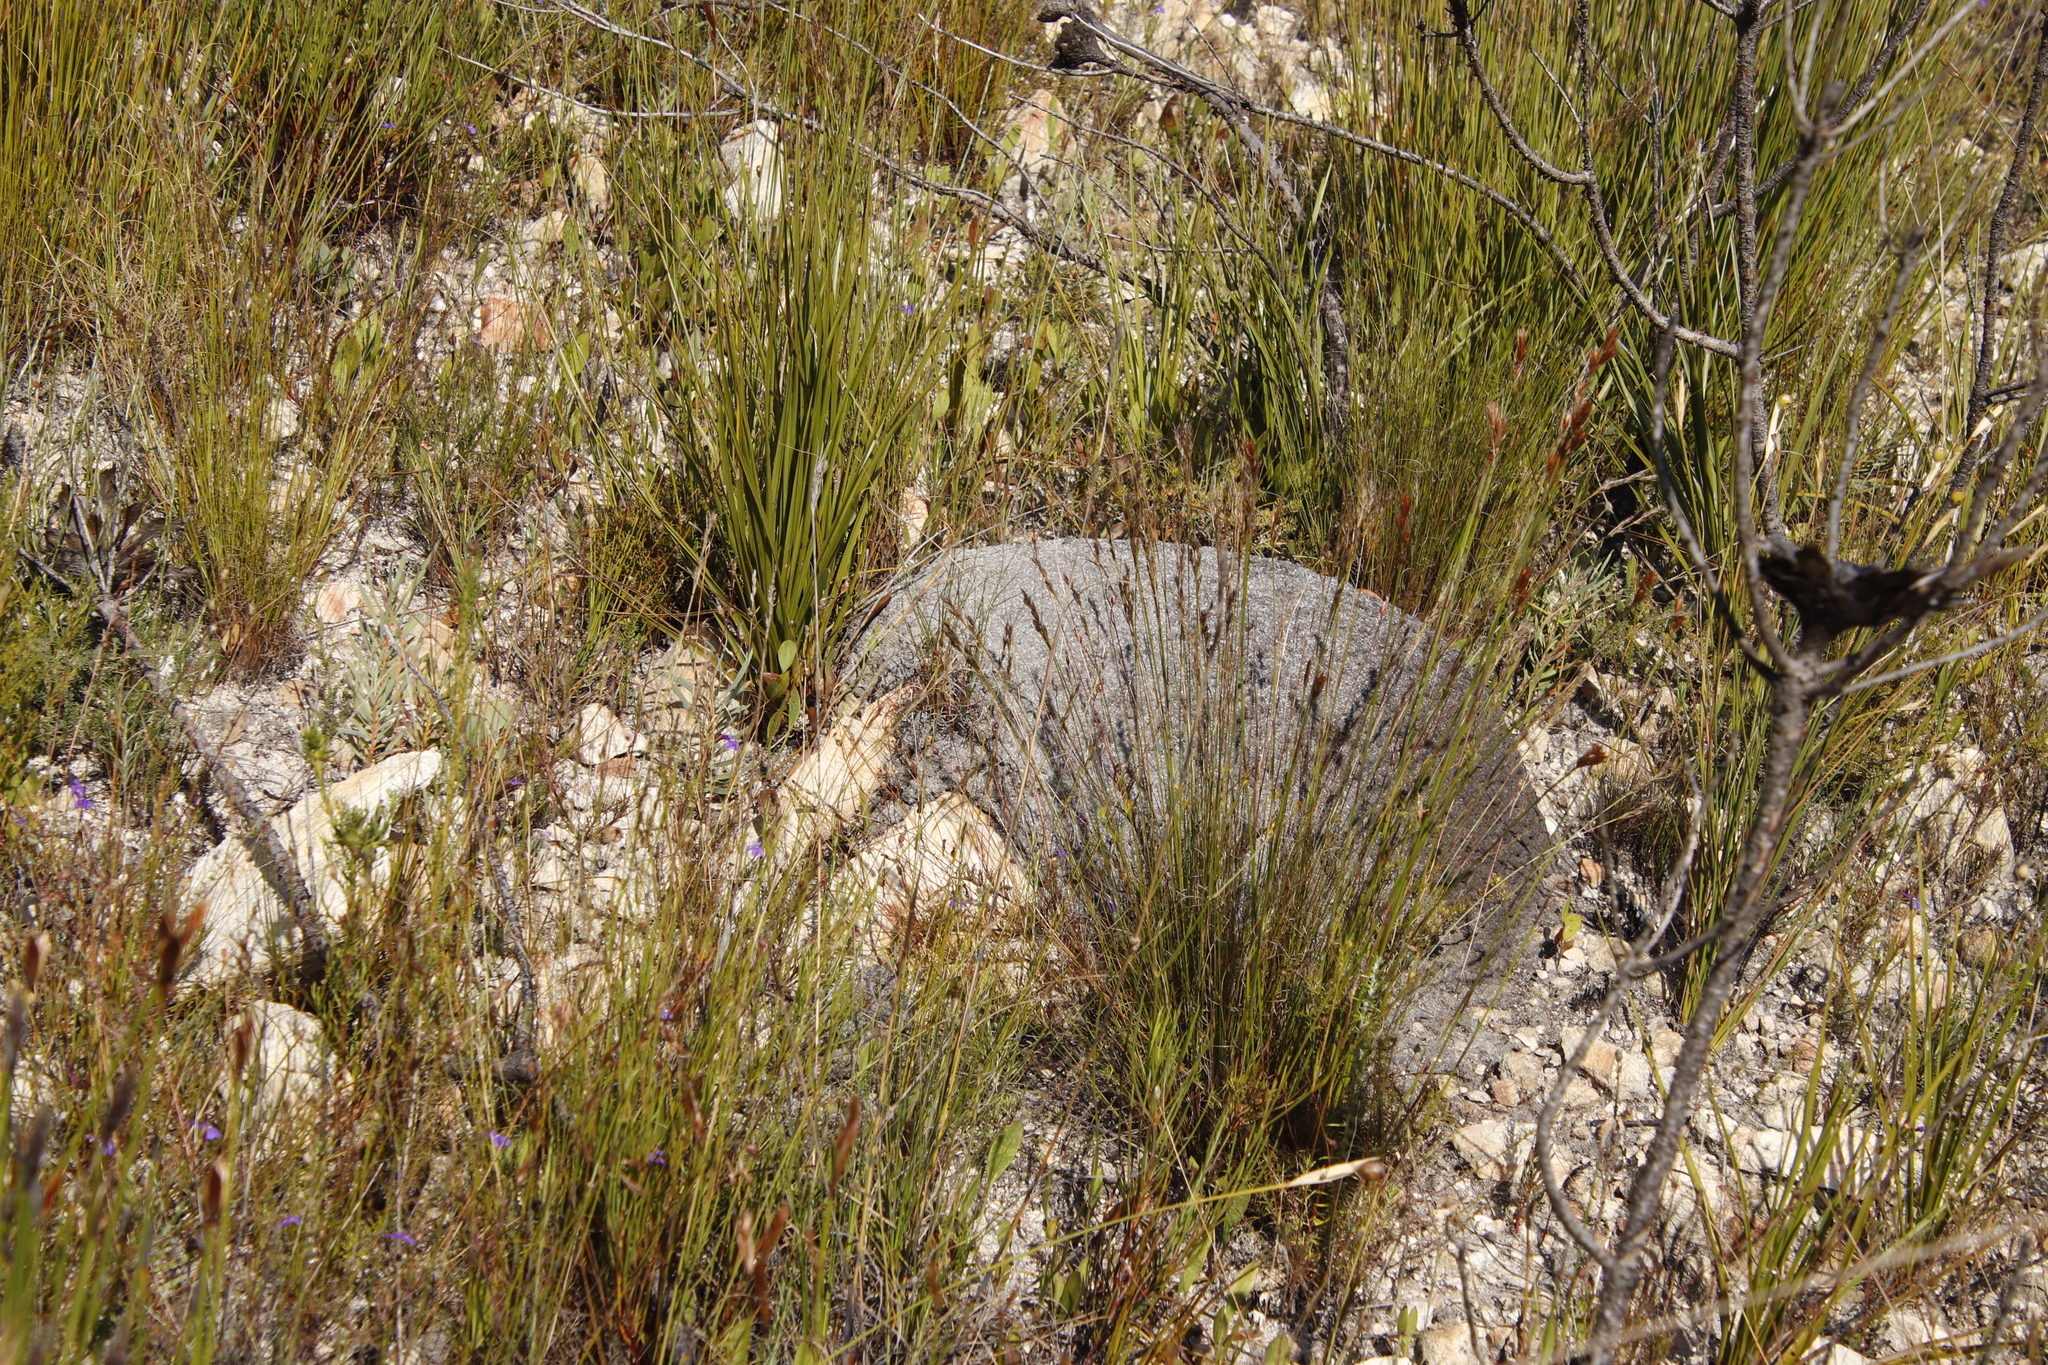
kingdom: Animalia
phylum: Arthropoda
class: Insecta
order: Blattodea
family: Termitidae
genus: Amitermes
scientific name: Amitermes hastatus
